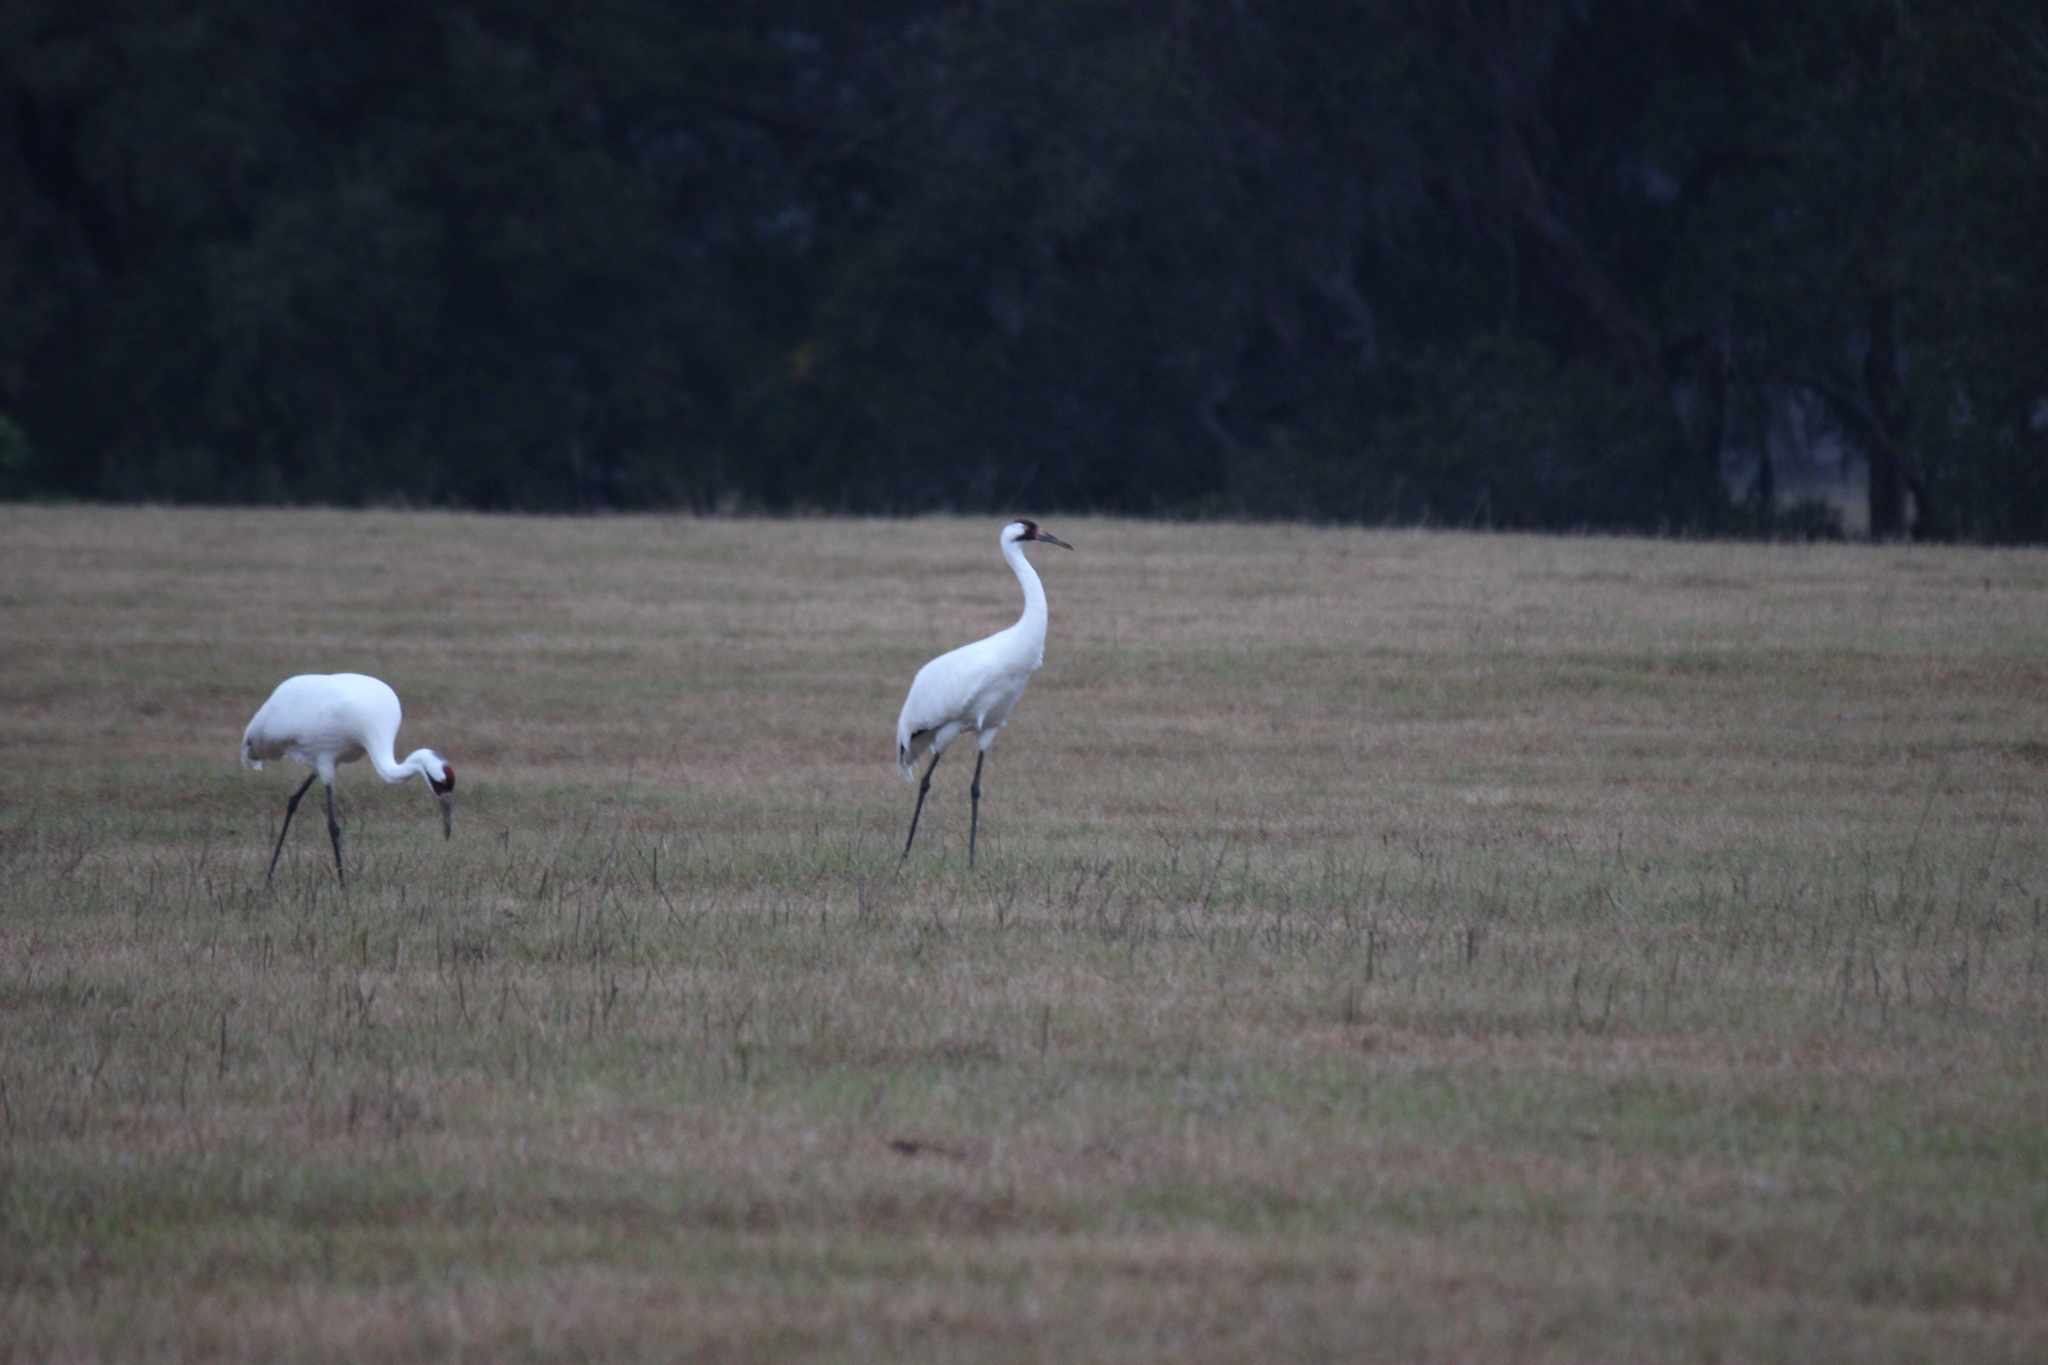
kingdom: Animalia
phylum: Chordata
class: Aves
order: Gruiformes
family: Gruidae
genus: Grus
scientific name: Grus americana
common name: Whooping crane
